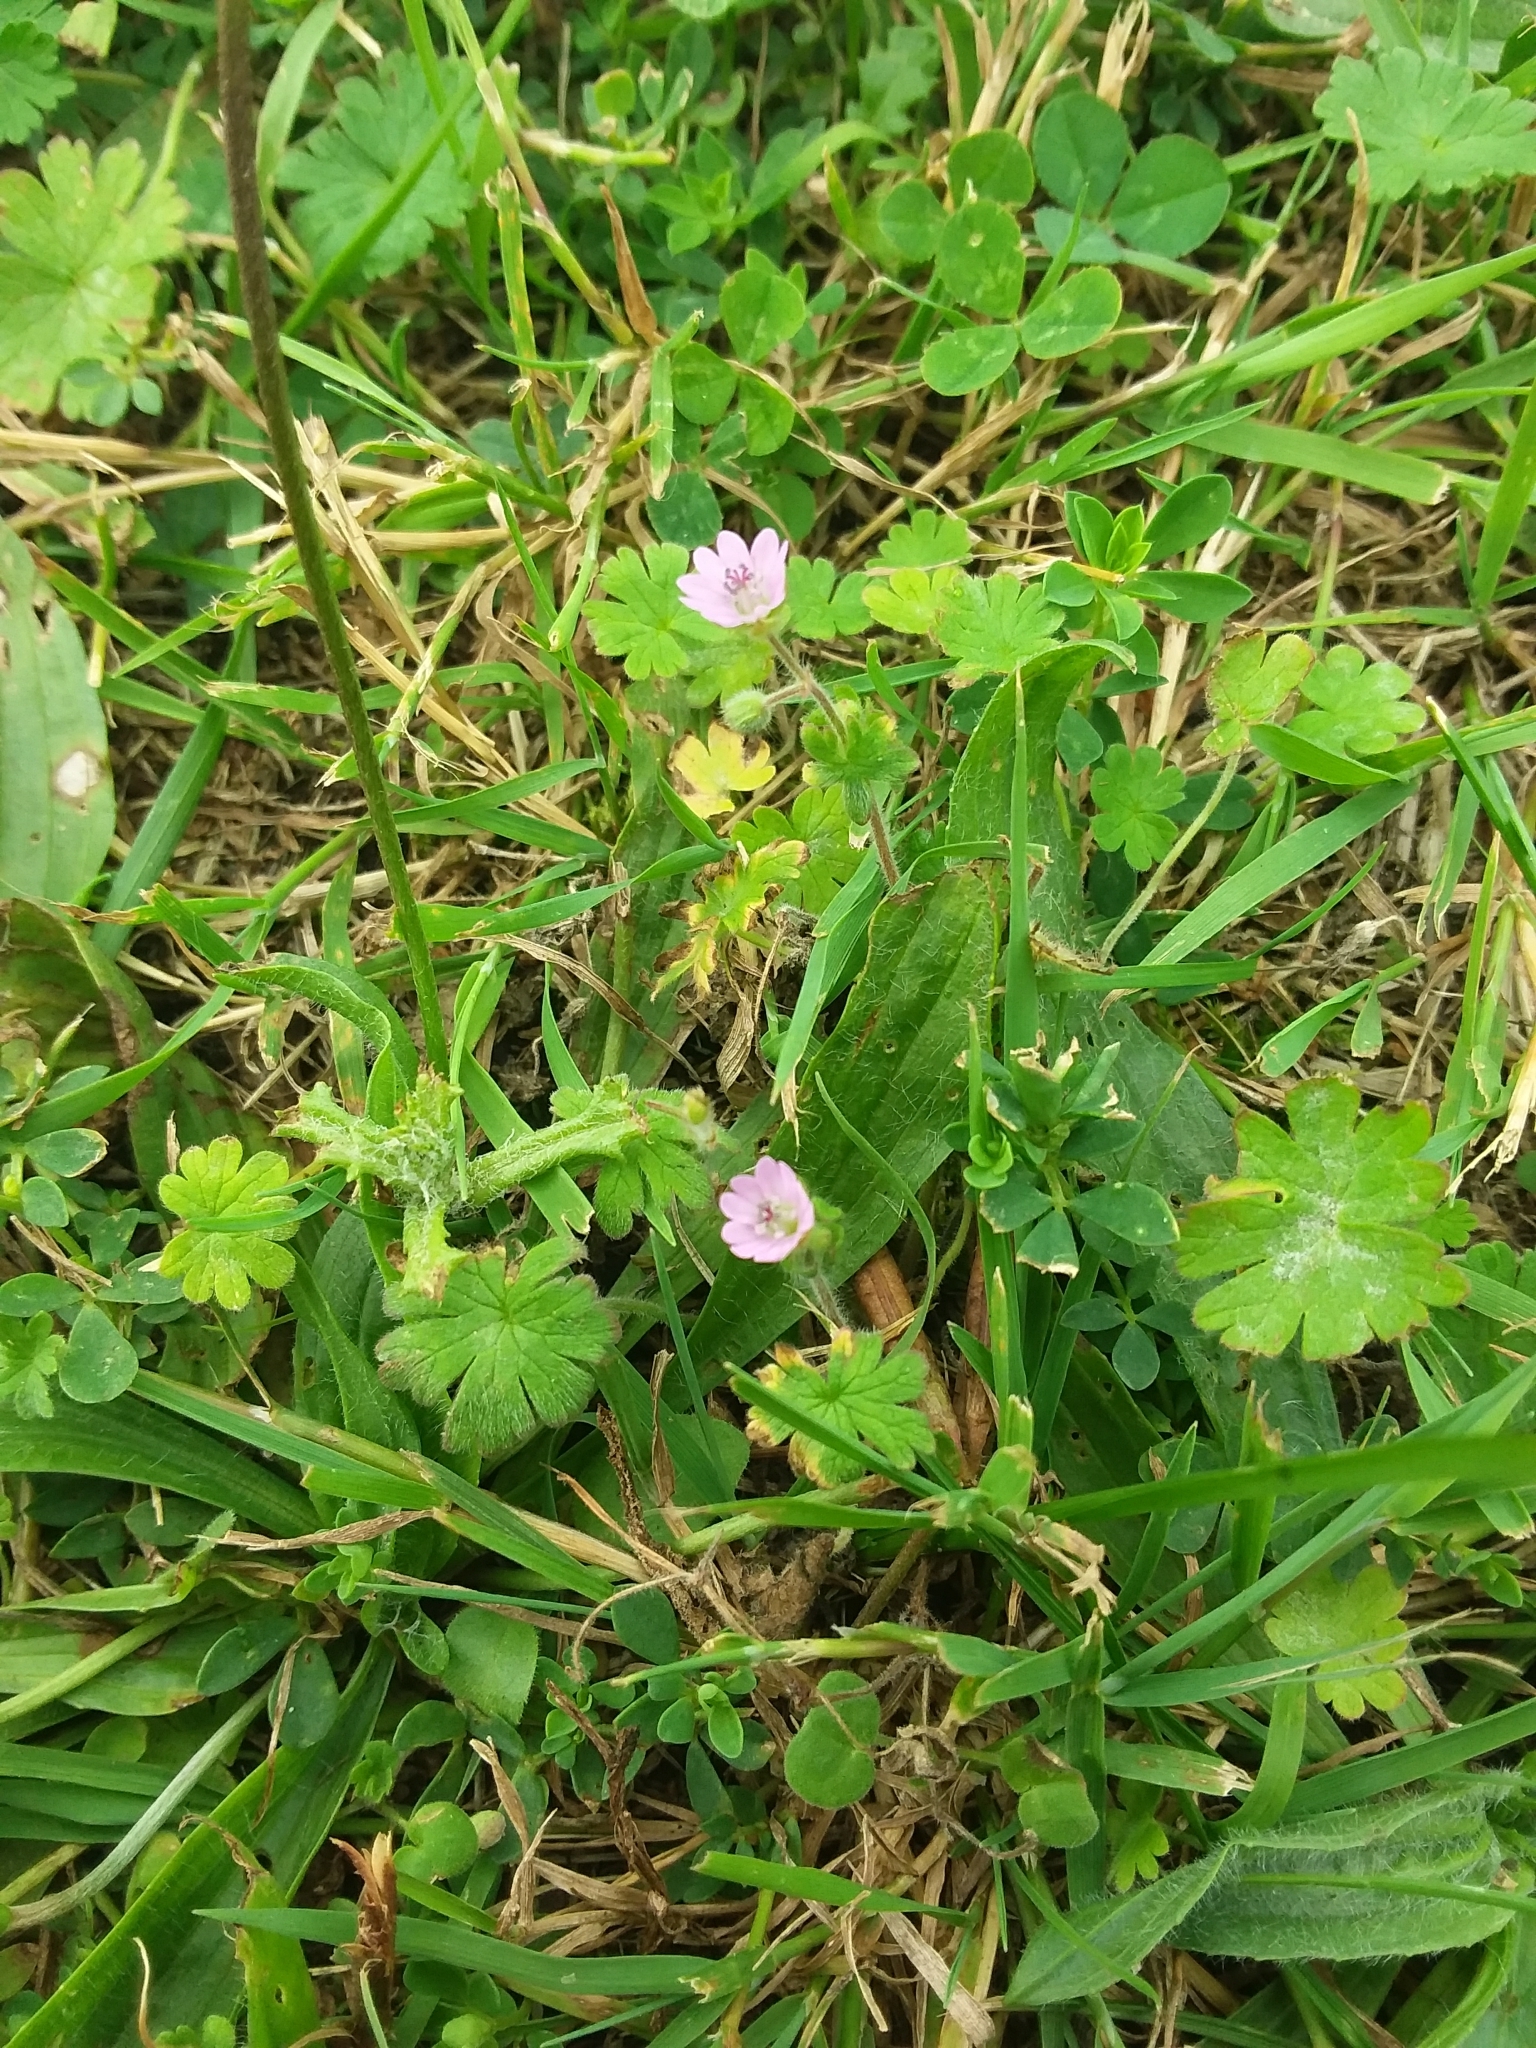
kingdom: Plantae
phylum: Tracheophyta
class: Magnoliopsida
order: Geraniales
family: Geraniaceae
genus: Geranium
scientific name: Geranium molle
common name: Dove's-foot crane's-bill
